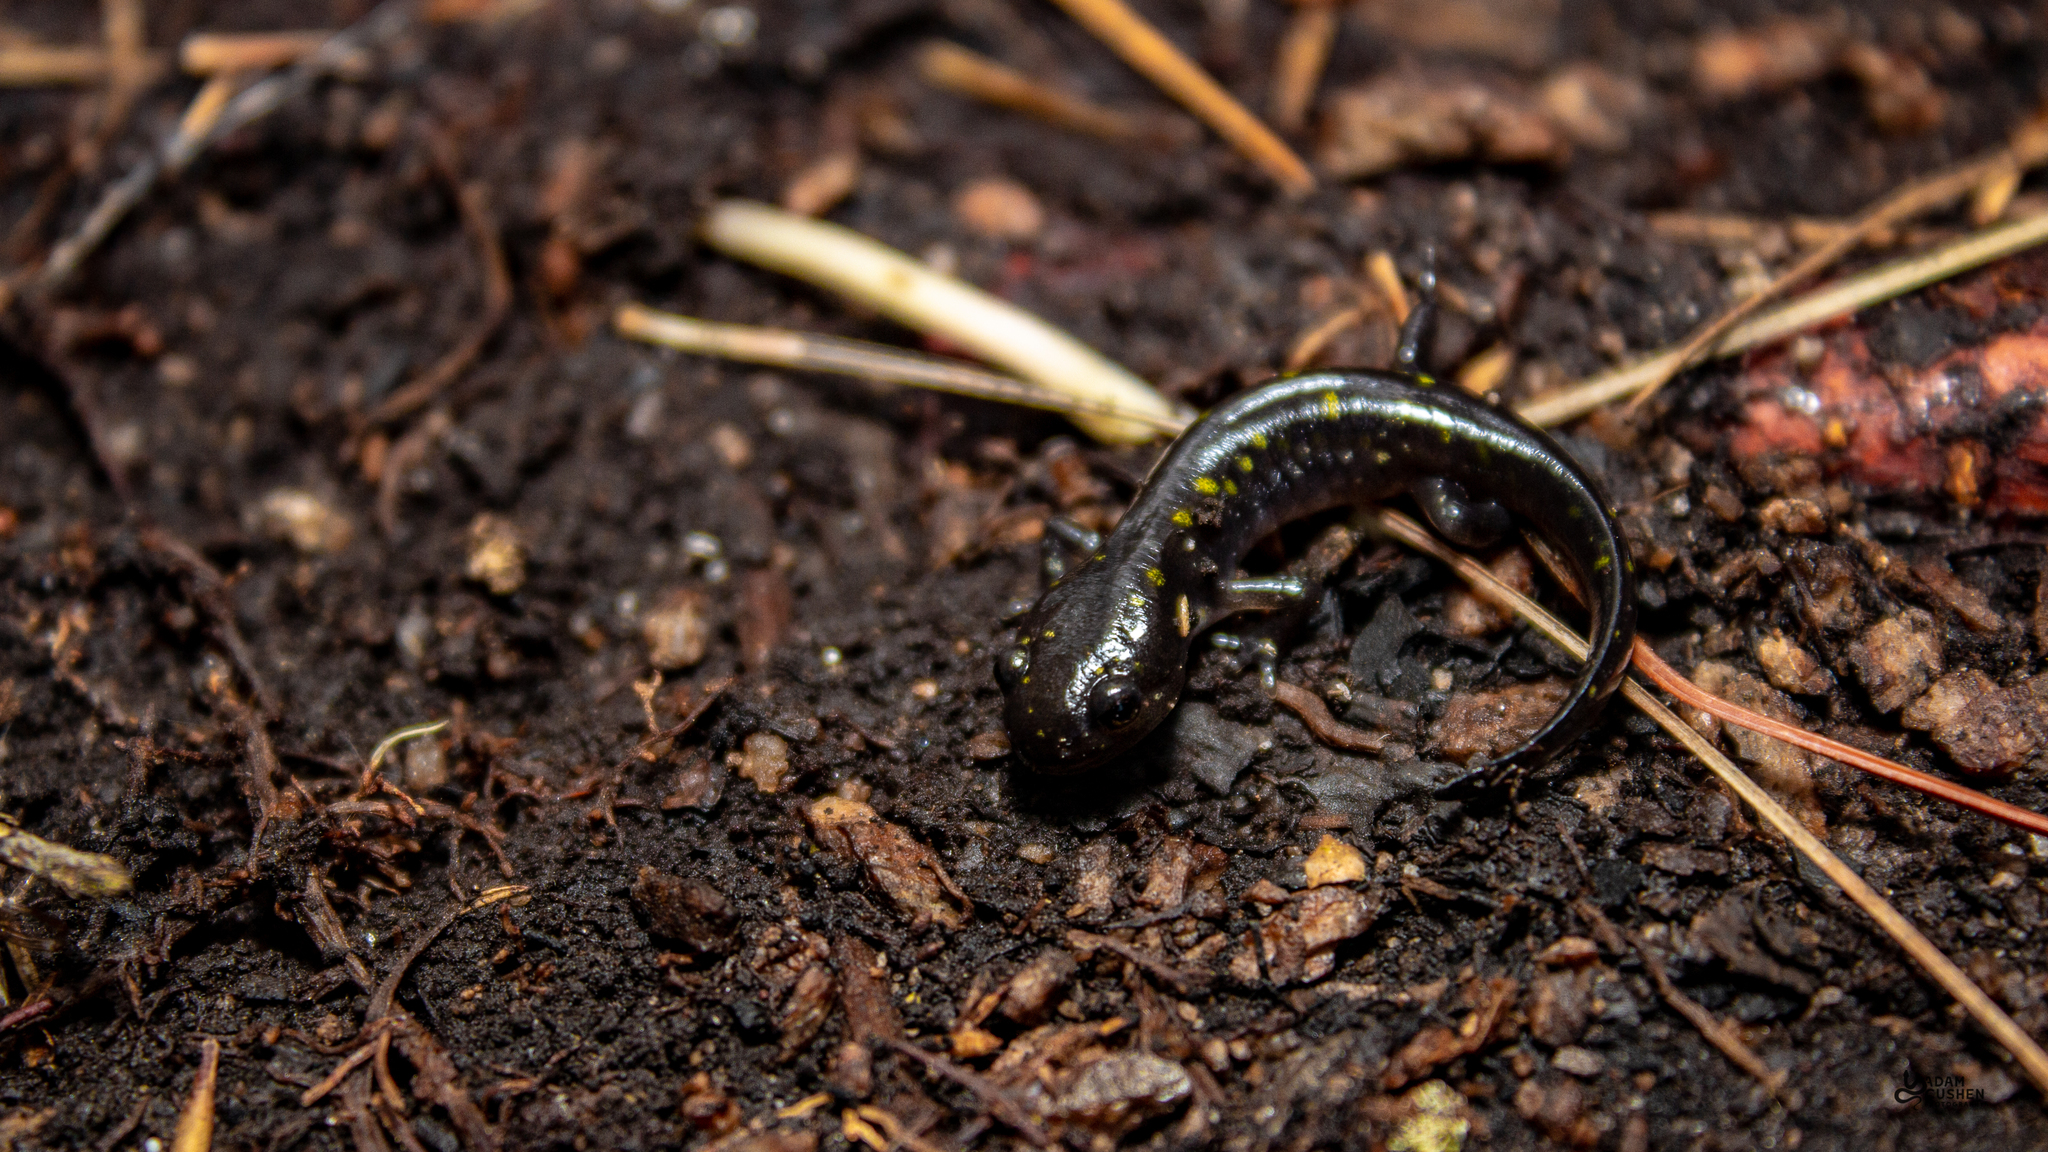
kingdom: Animalia
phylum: Chordata
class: Amphibia
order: Caudata
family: Ambystomatidae
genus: Ambystoma
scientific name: Ambystoma maculatum
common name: Spotted salamander
